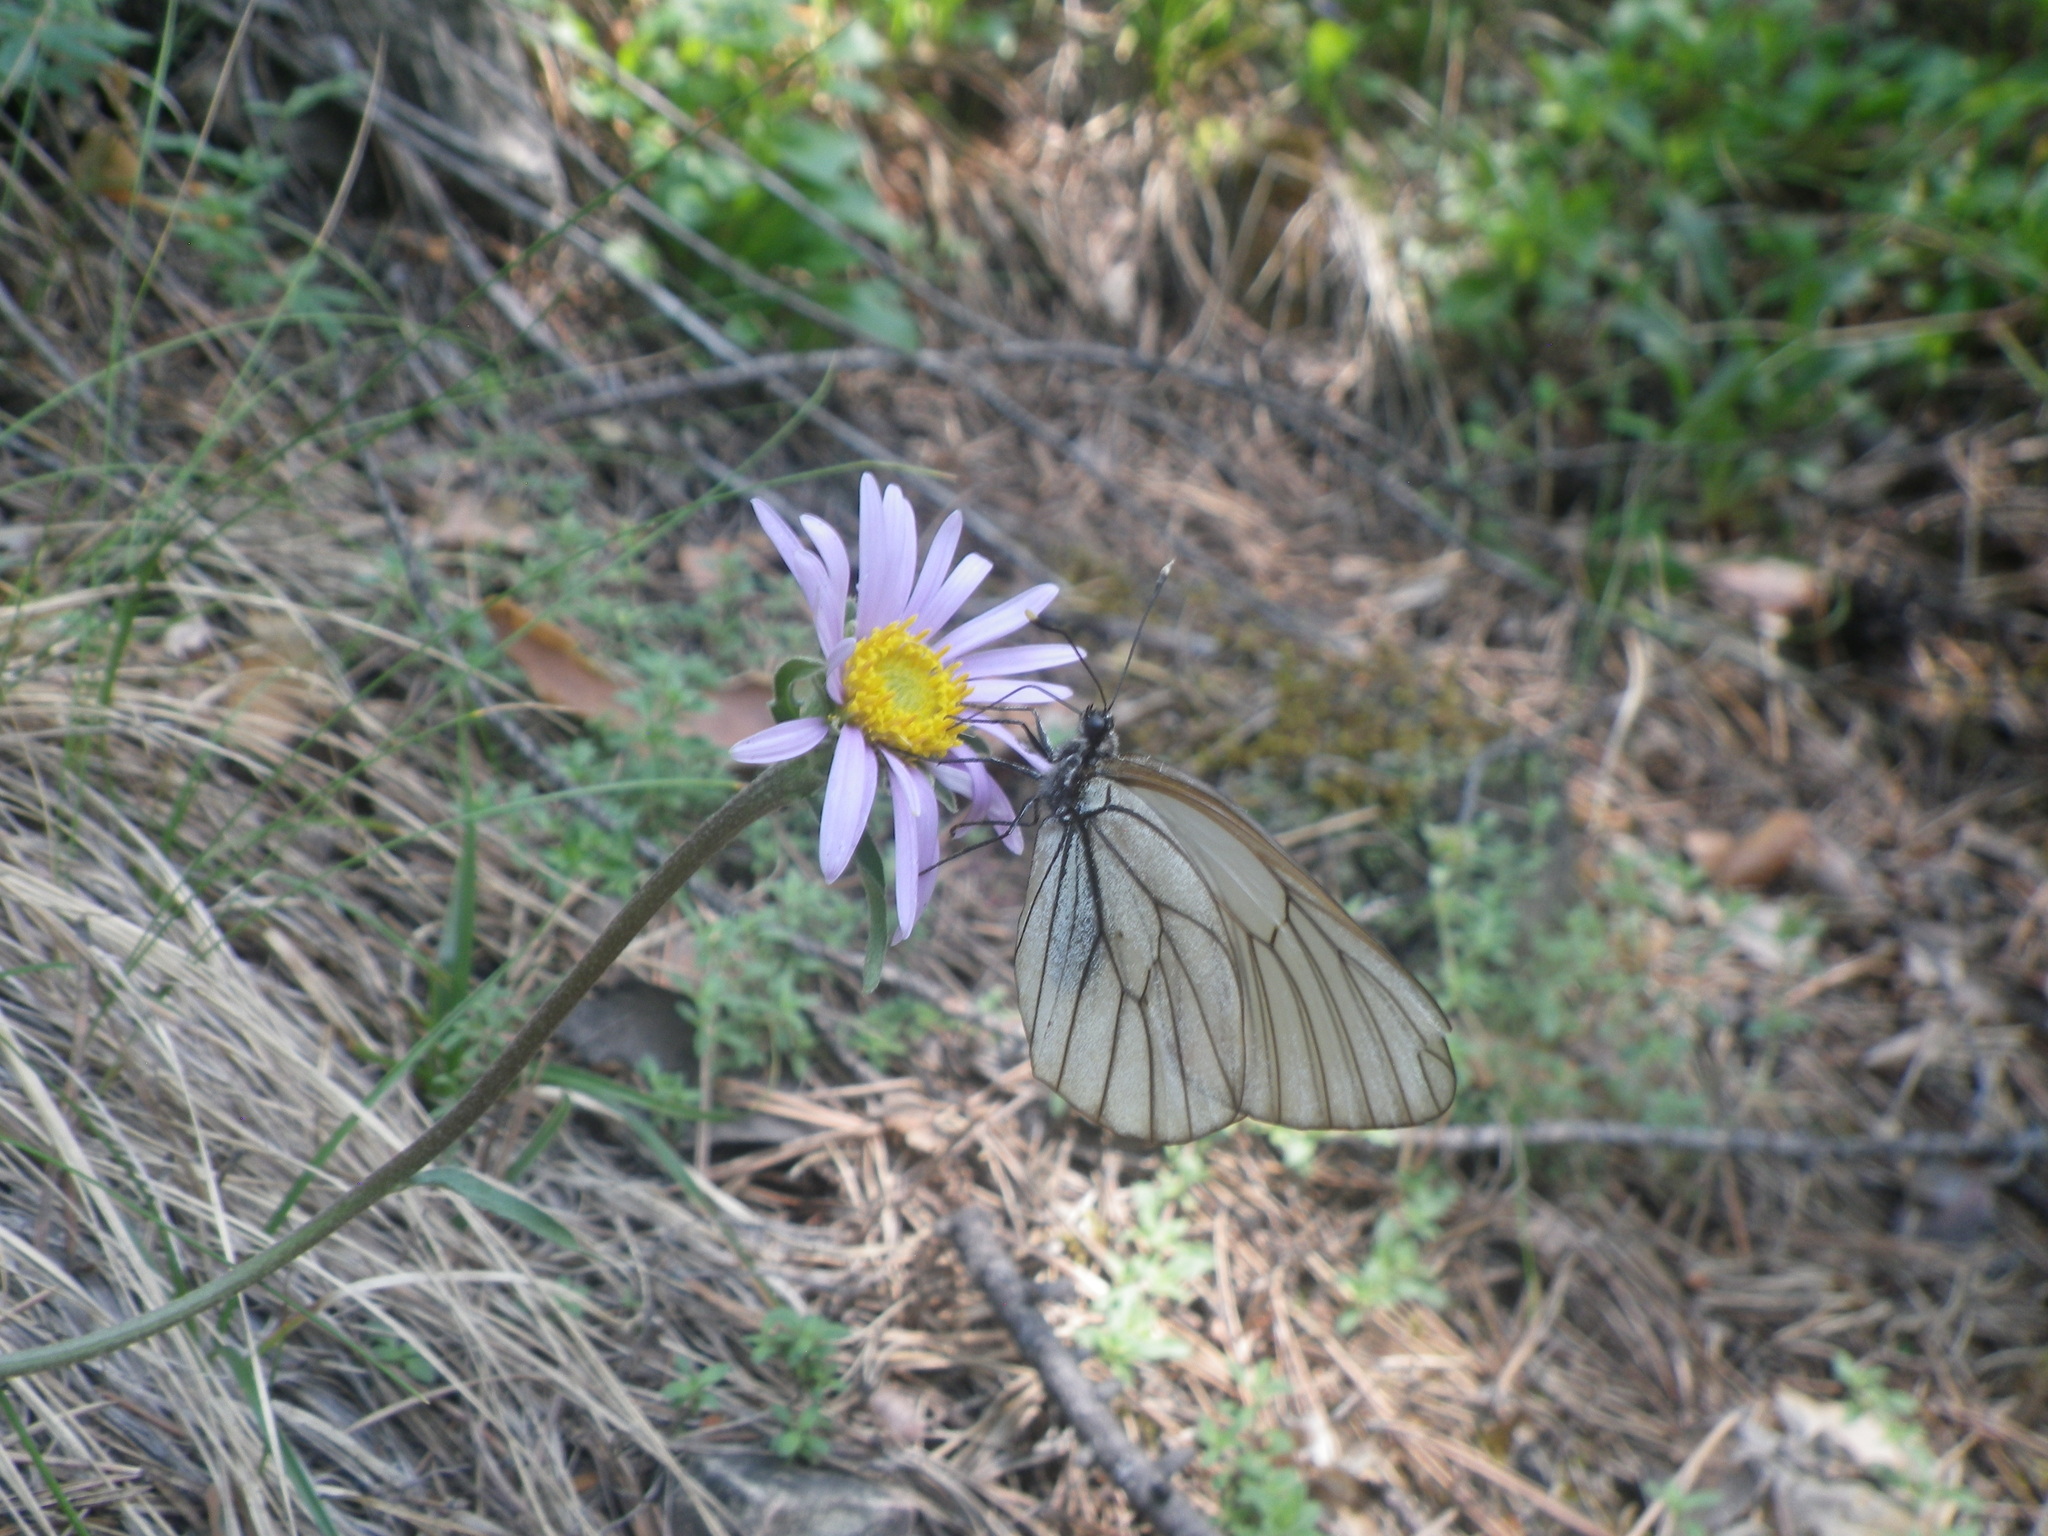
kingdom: Animalia
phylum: Arthropoda
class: Insecta
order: Lepidoptera
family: Pieridae
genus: Aporia
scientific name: Aporia crataegi
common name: Black-veined white
